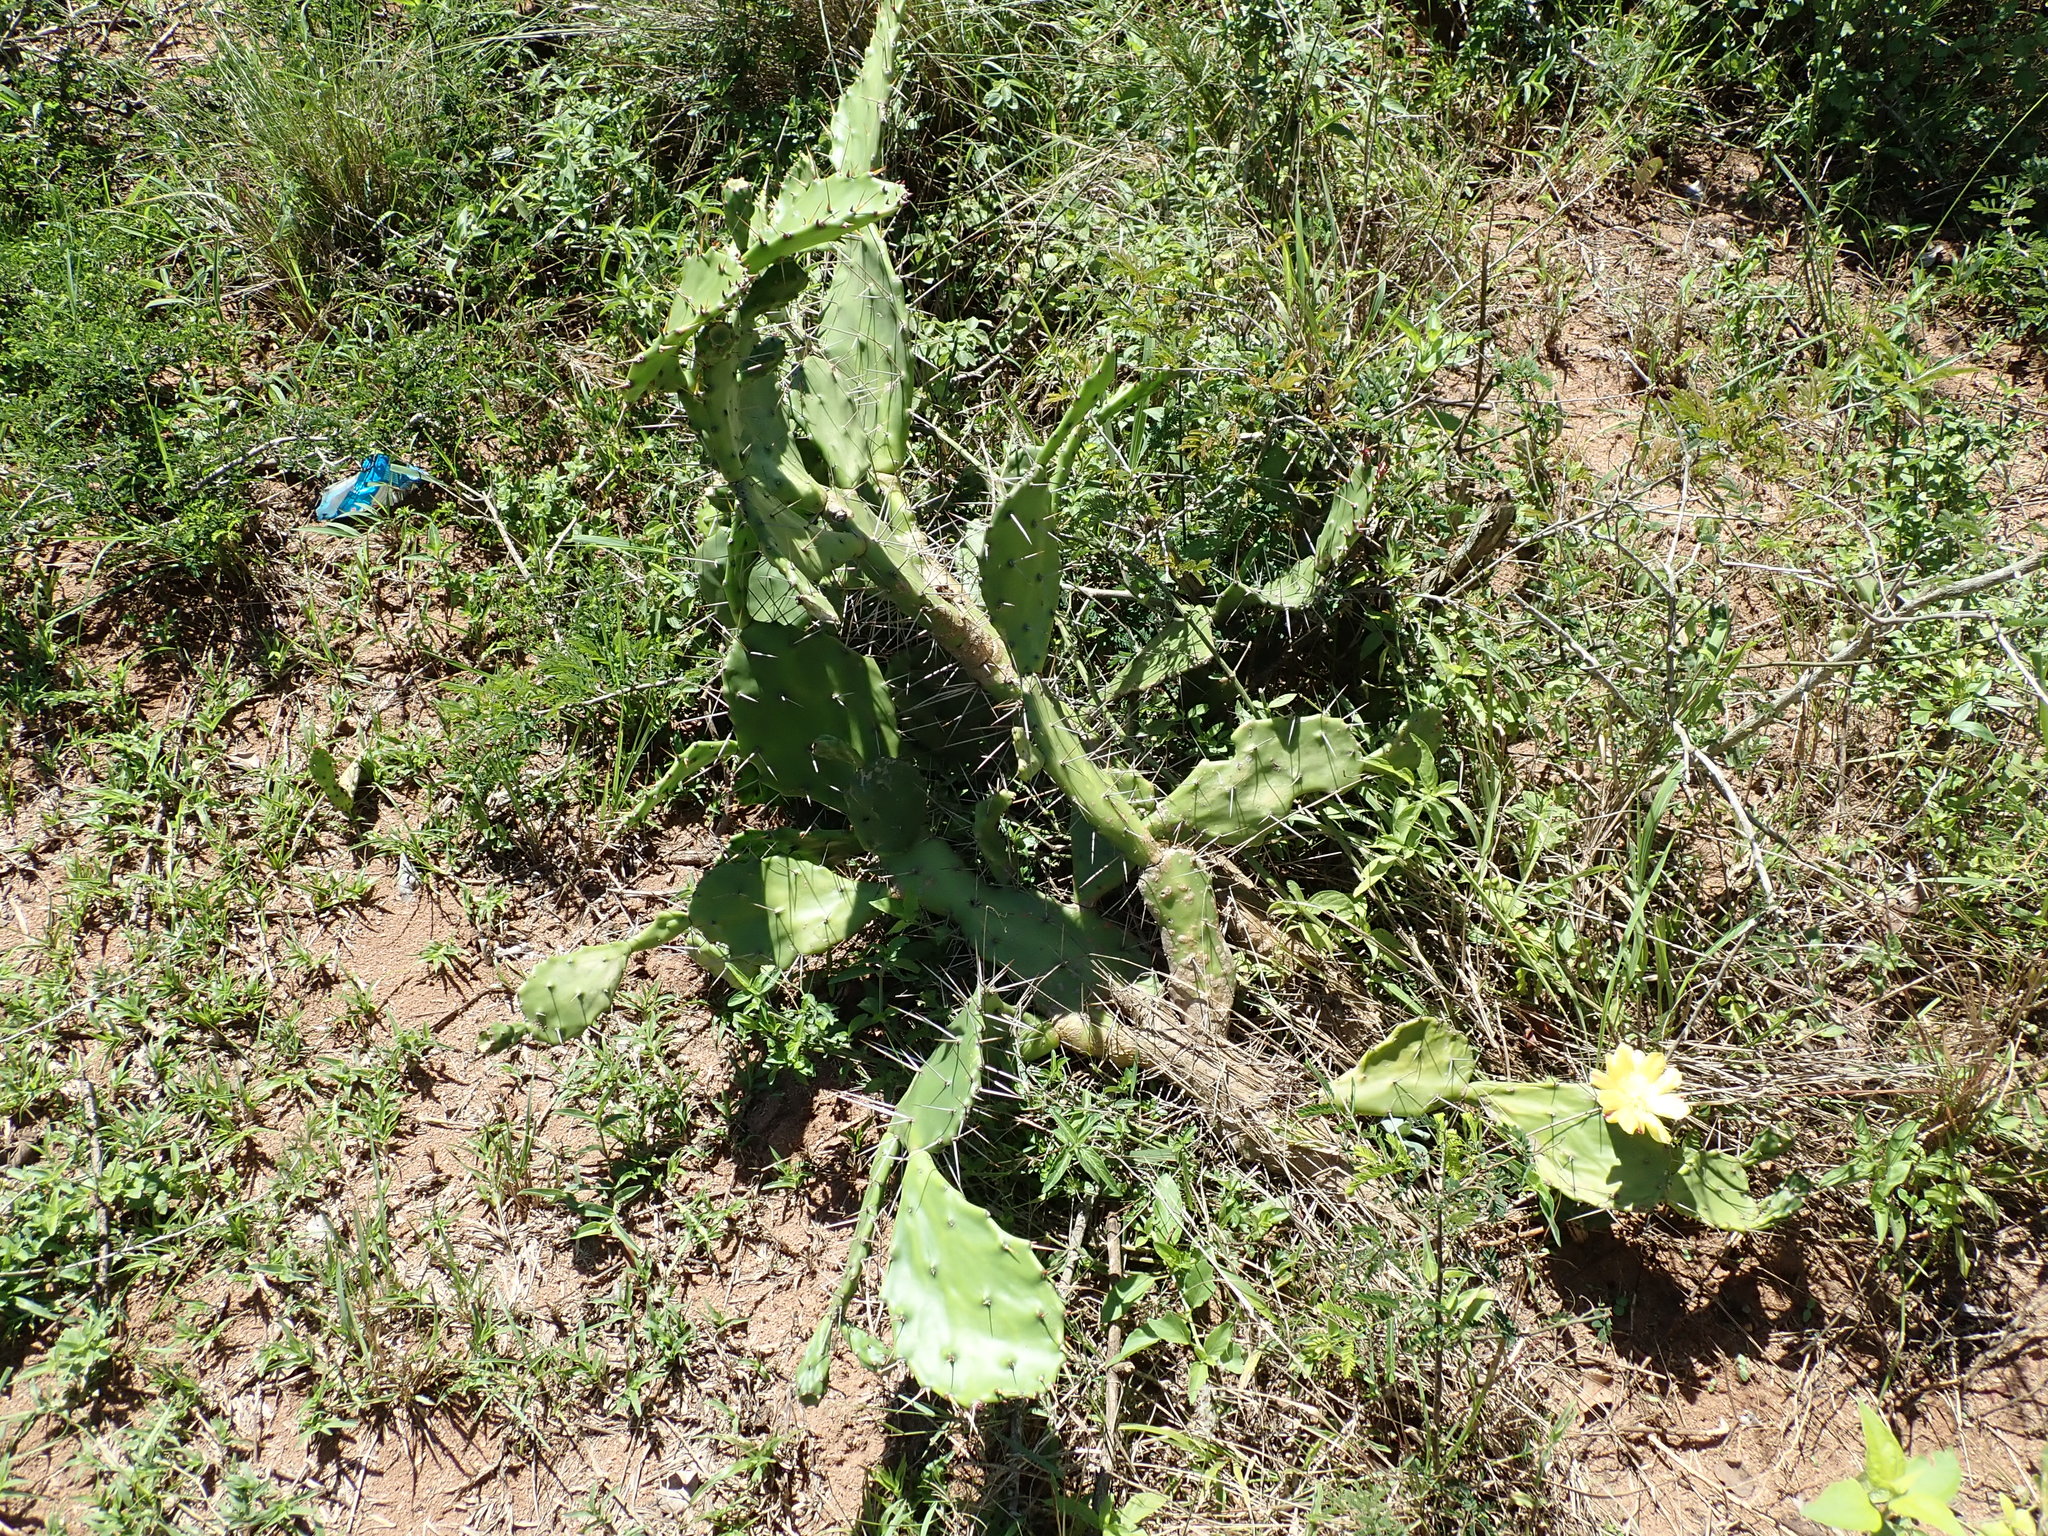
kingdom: Plantae
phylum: Tracheophyta
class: Magnoliopsida
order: Caryophyllales
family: Cactaceae
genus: Opuntia
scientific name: Opuntia monacantha
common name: Common pricklypear
